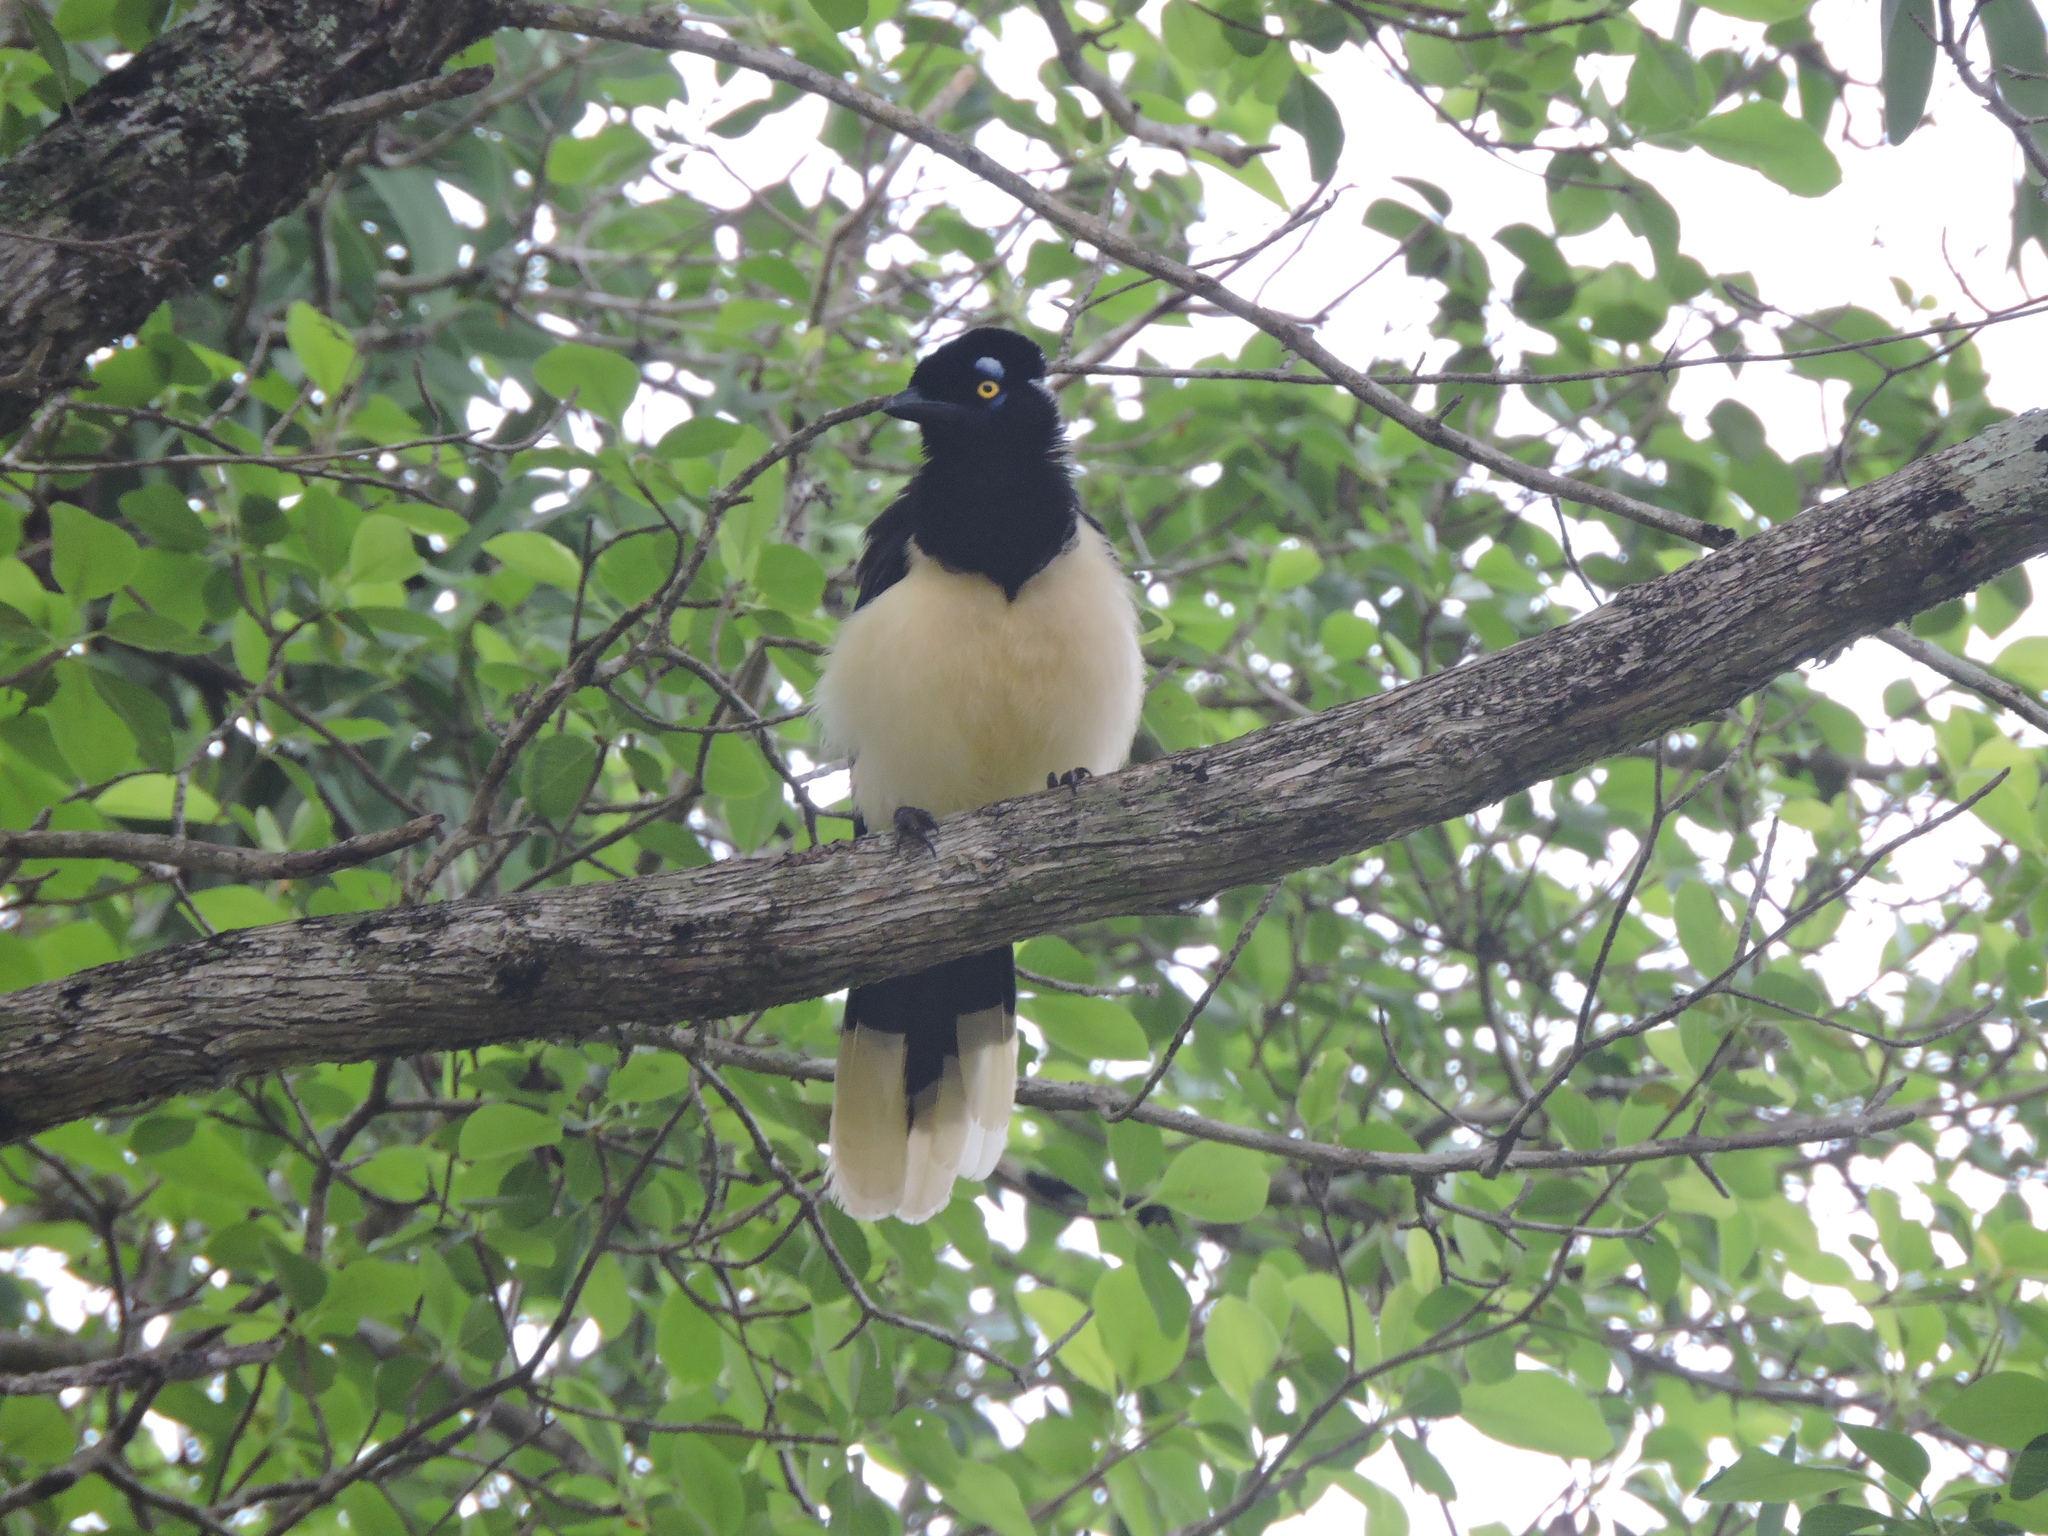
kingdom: Animalia
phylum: Chordata
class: Aves
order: Passeriformes
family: Corvidae
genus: Cyanocorax
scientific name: Cyanocorax chrysops
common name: Plush-crested jay
